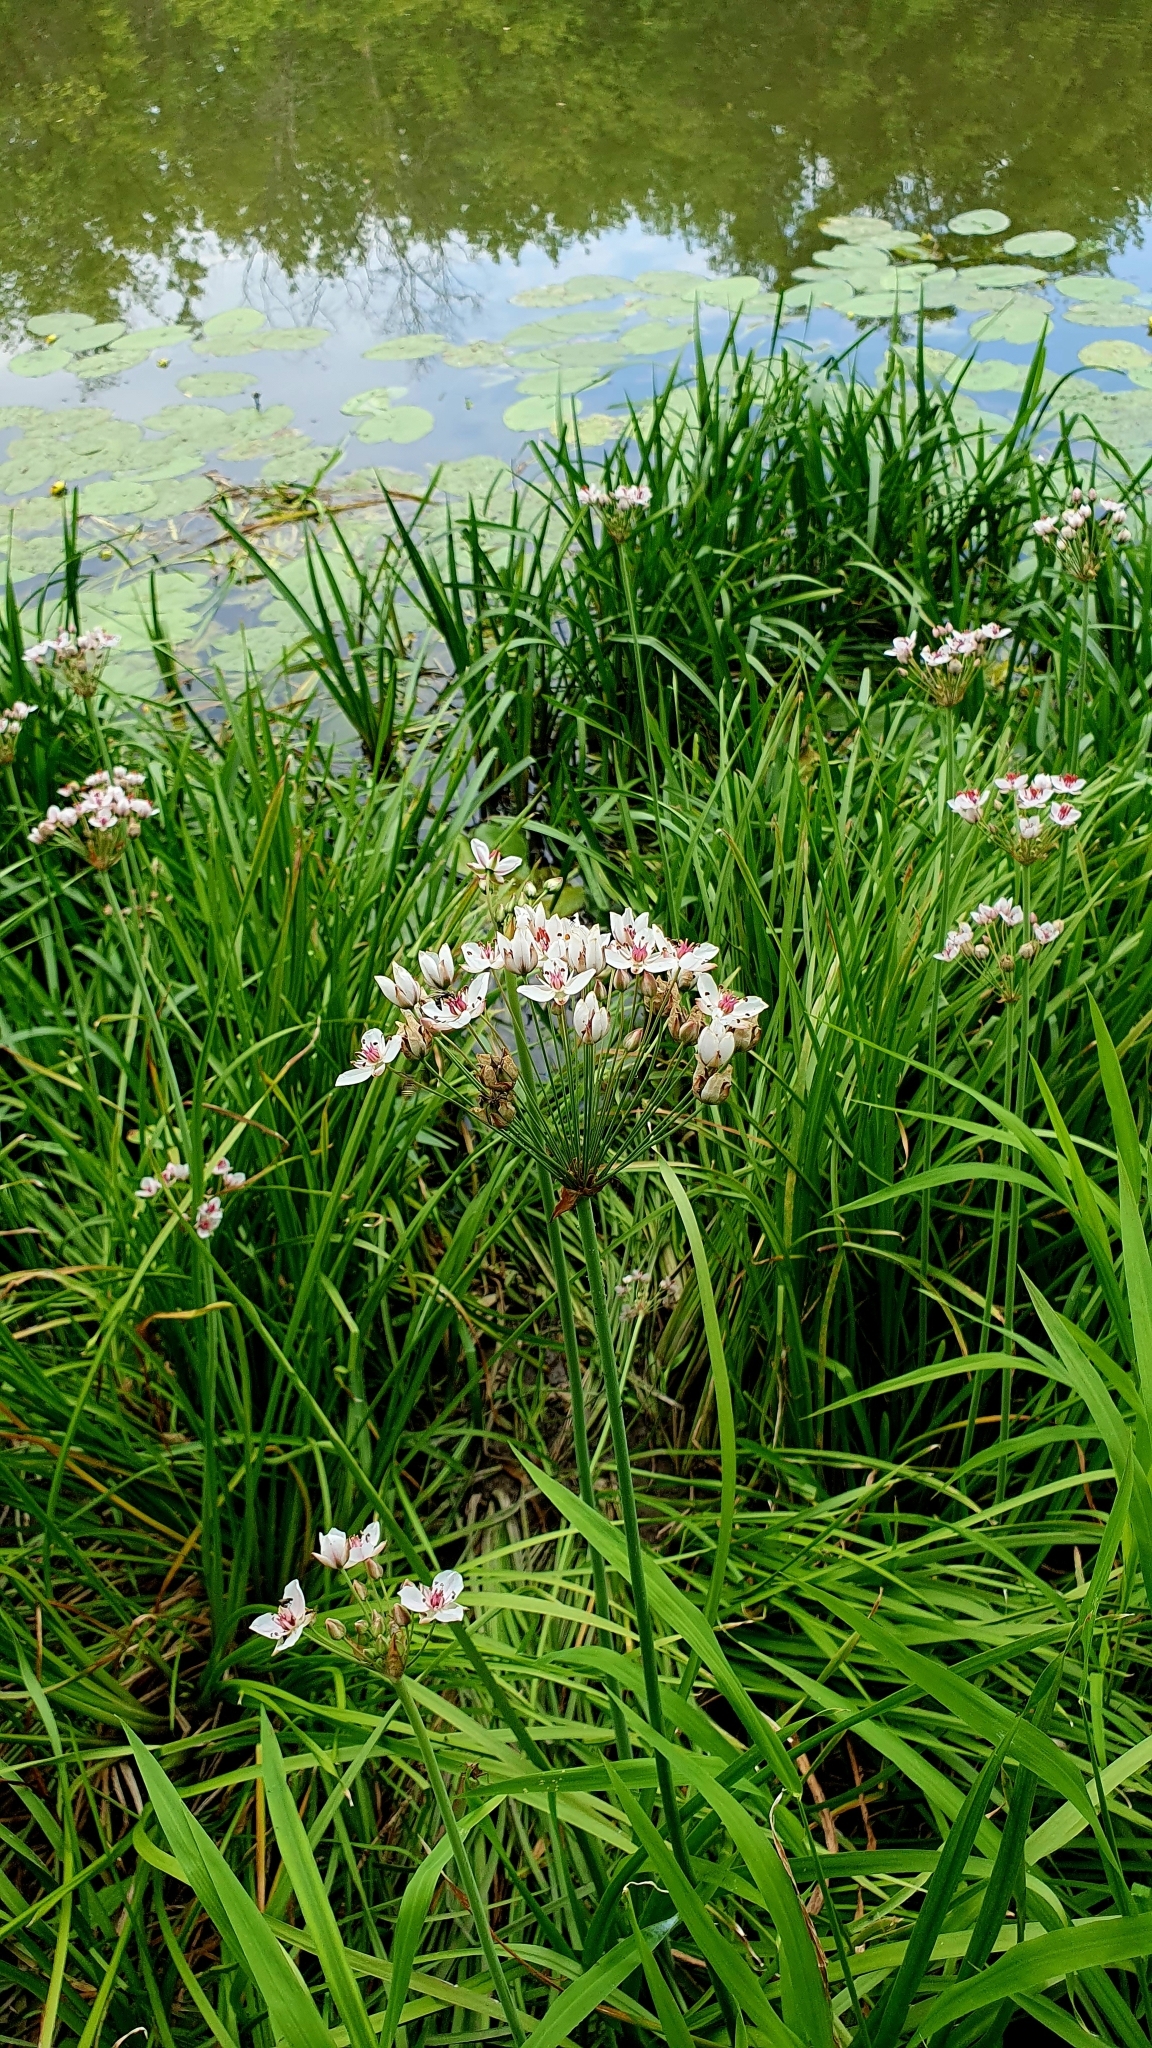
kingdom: Plantae
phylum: Tracheophyta
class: Liliopsida
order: Alismatales
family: Butomaceae
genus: Butomus
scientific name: Butomus umbellatus
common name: Flowering-rush
